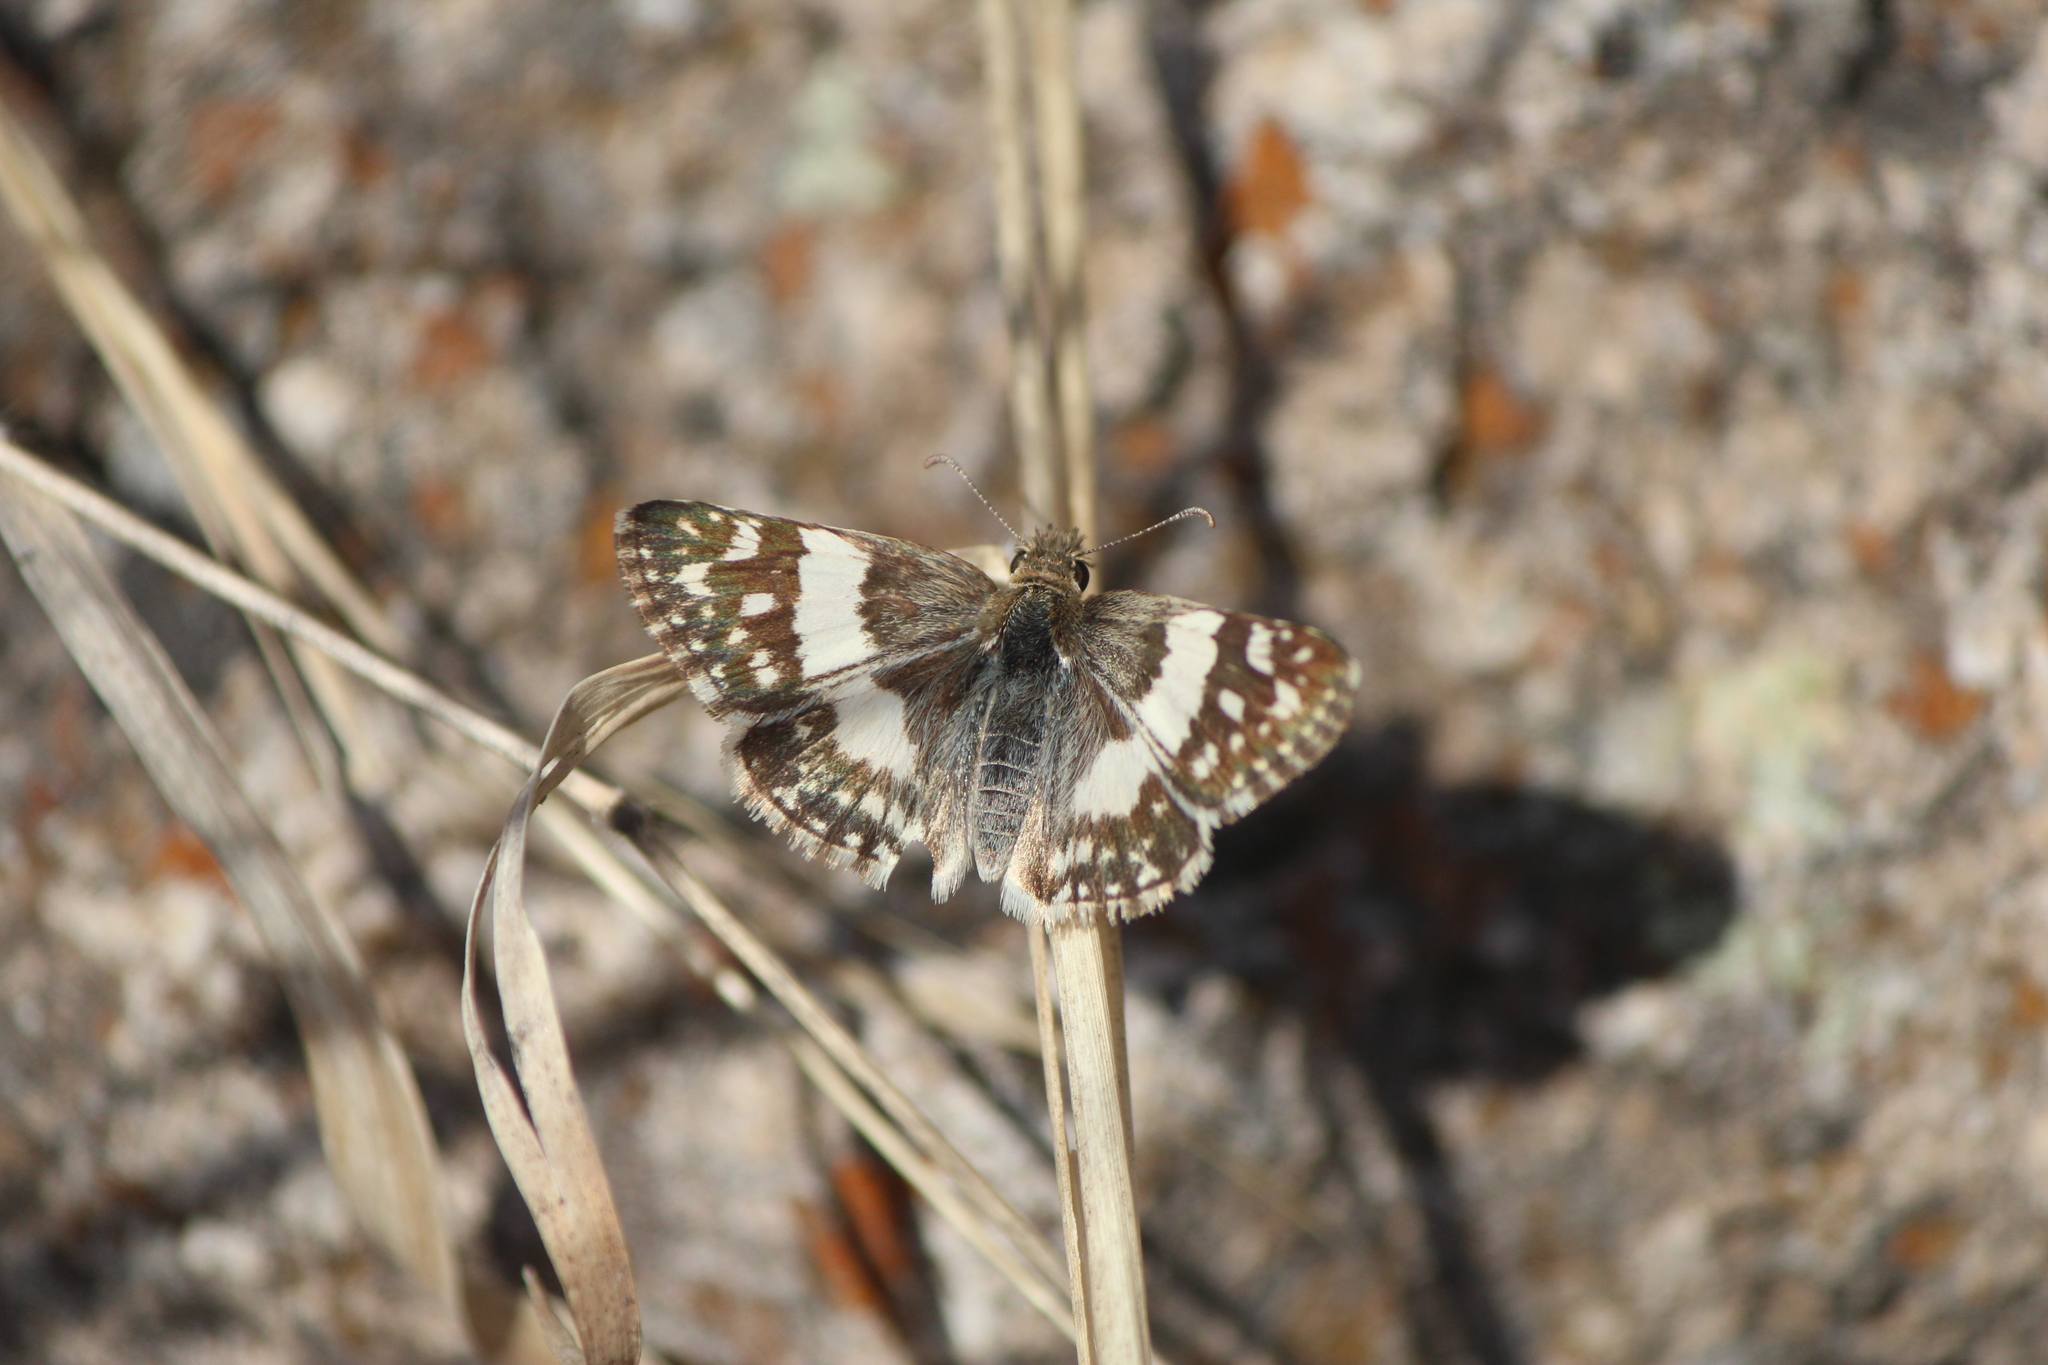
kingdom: Animalia
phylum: Arthropoda
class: Insecta
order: Lepidoptera
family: Hesperiidae
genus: Heliopyrgus
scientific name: Heliopyrgus domicella
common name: Erichson's white skipper
